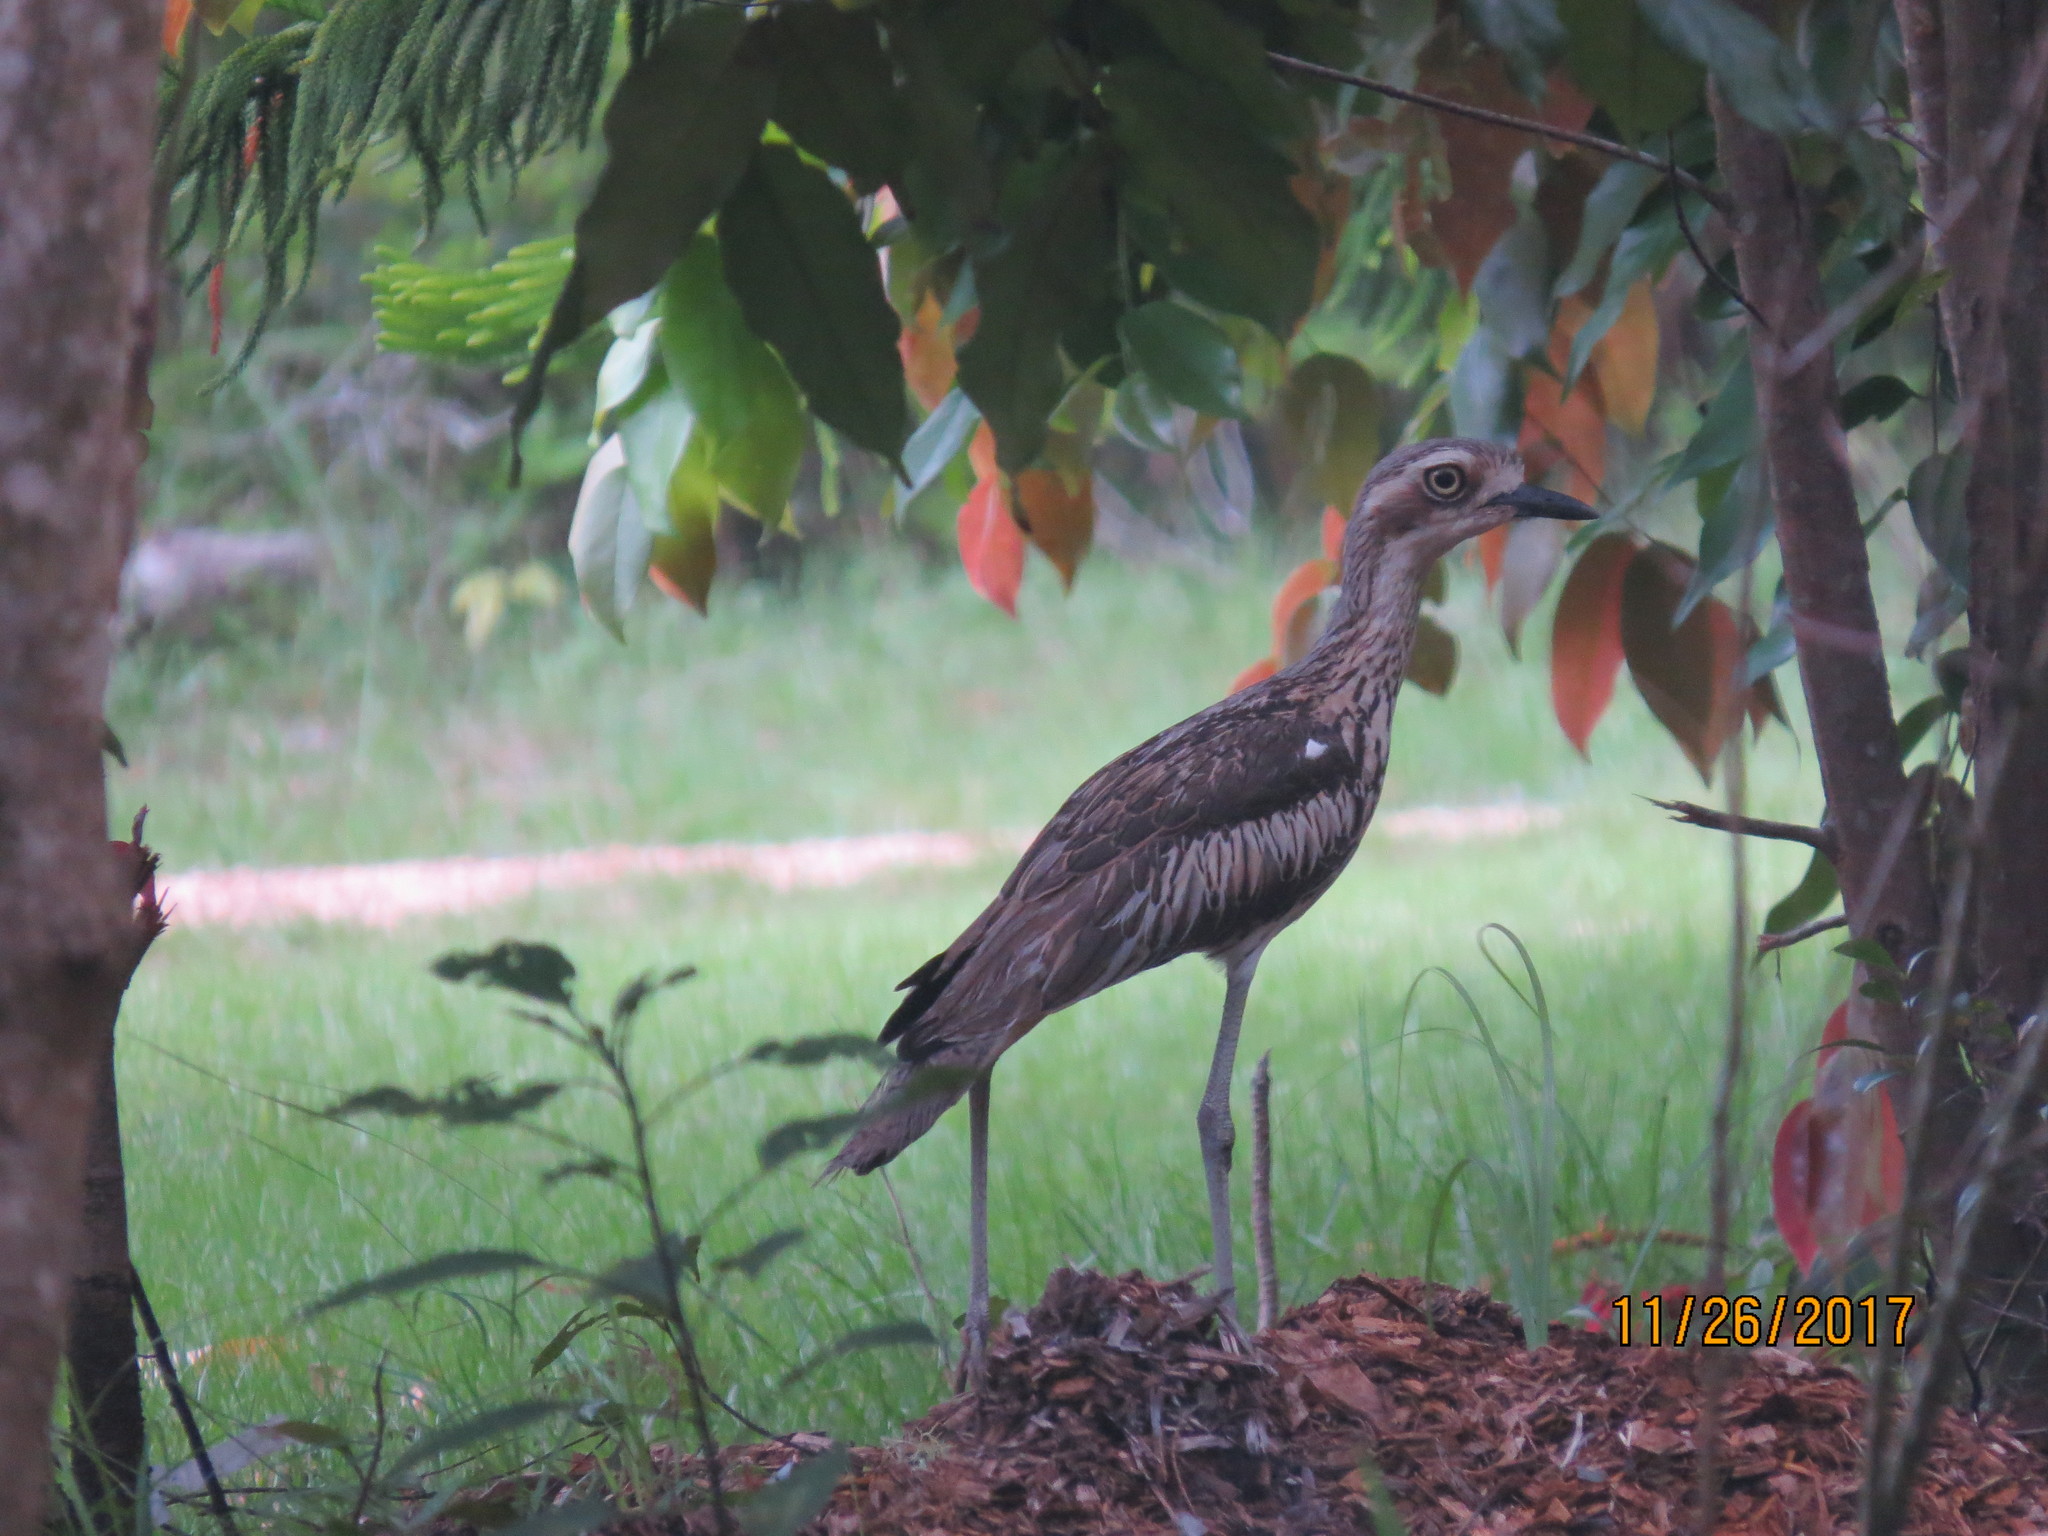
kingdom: Animalia
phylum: Chordata
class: Aves
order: Charadriiformes
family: Burhinidae
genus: Burhinus
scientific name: Burhinus grallarius
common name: Bush stone-curlew
